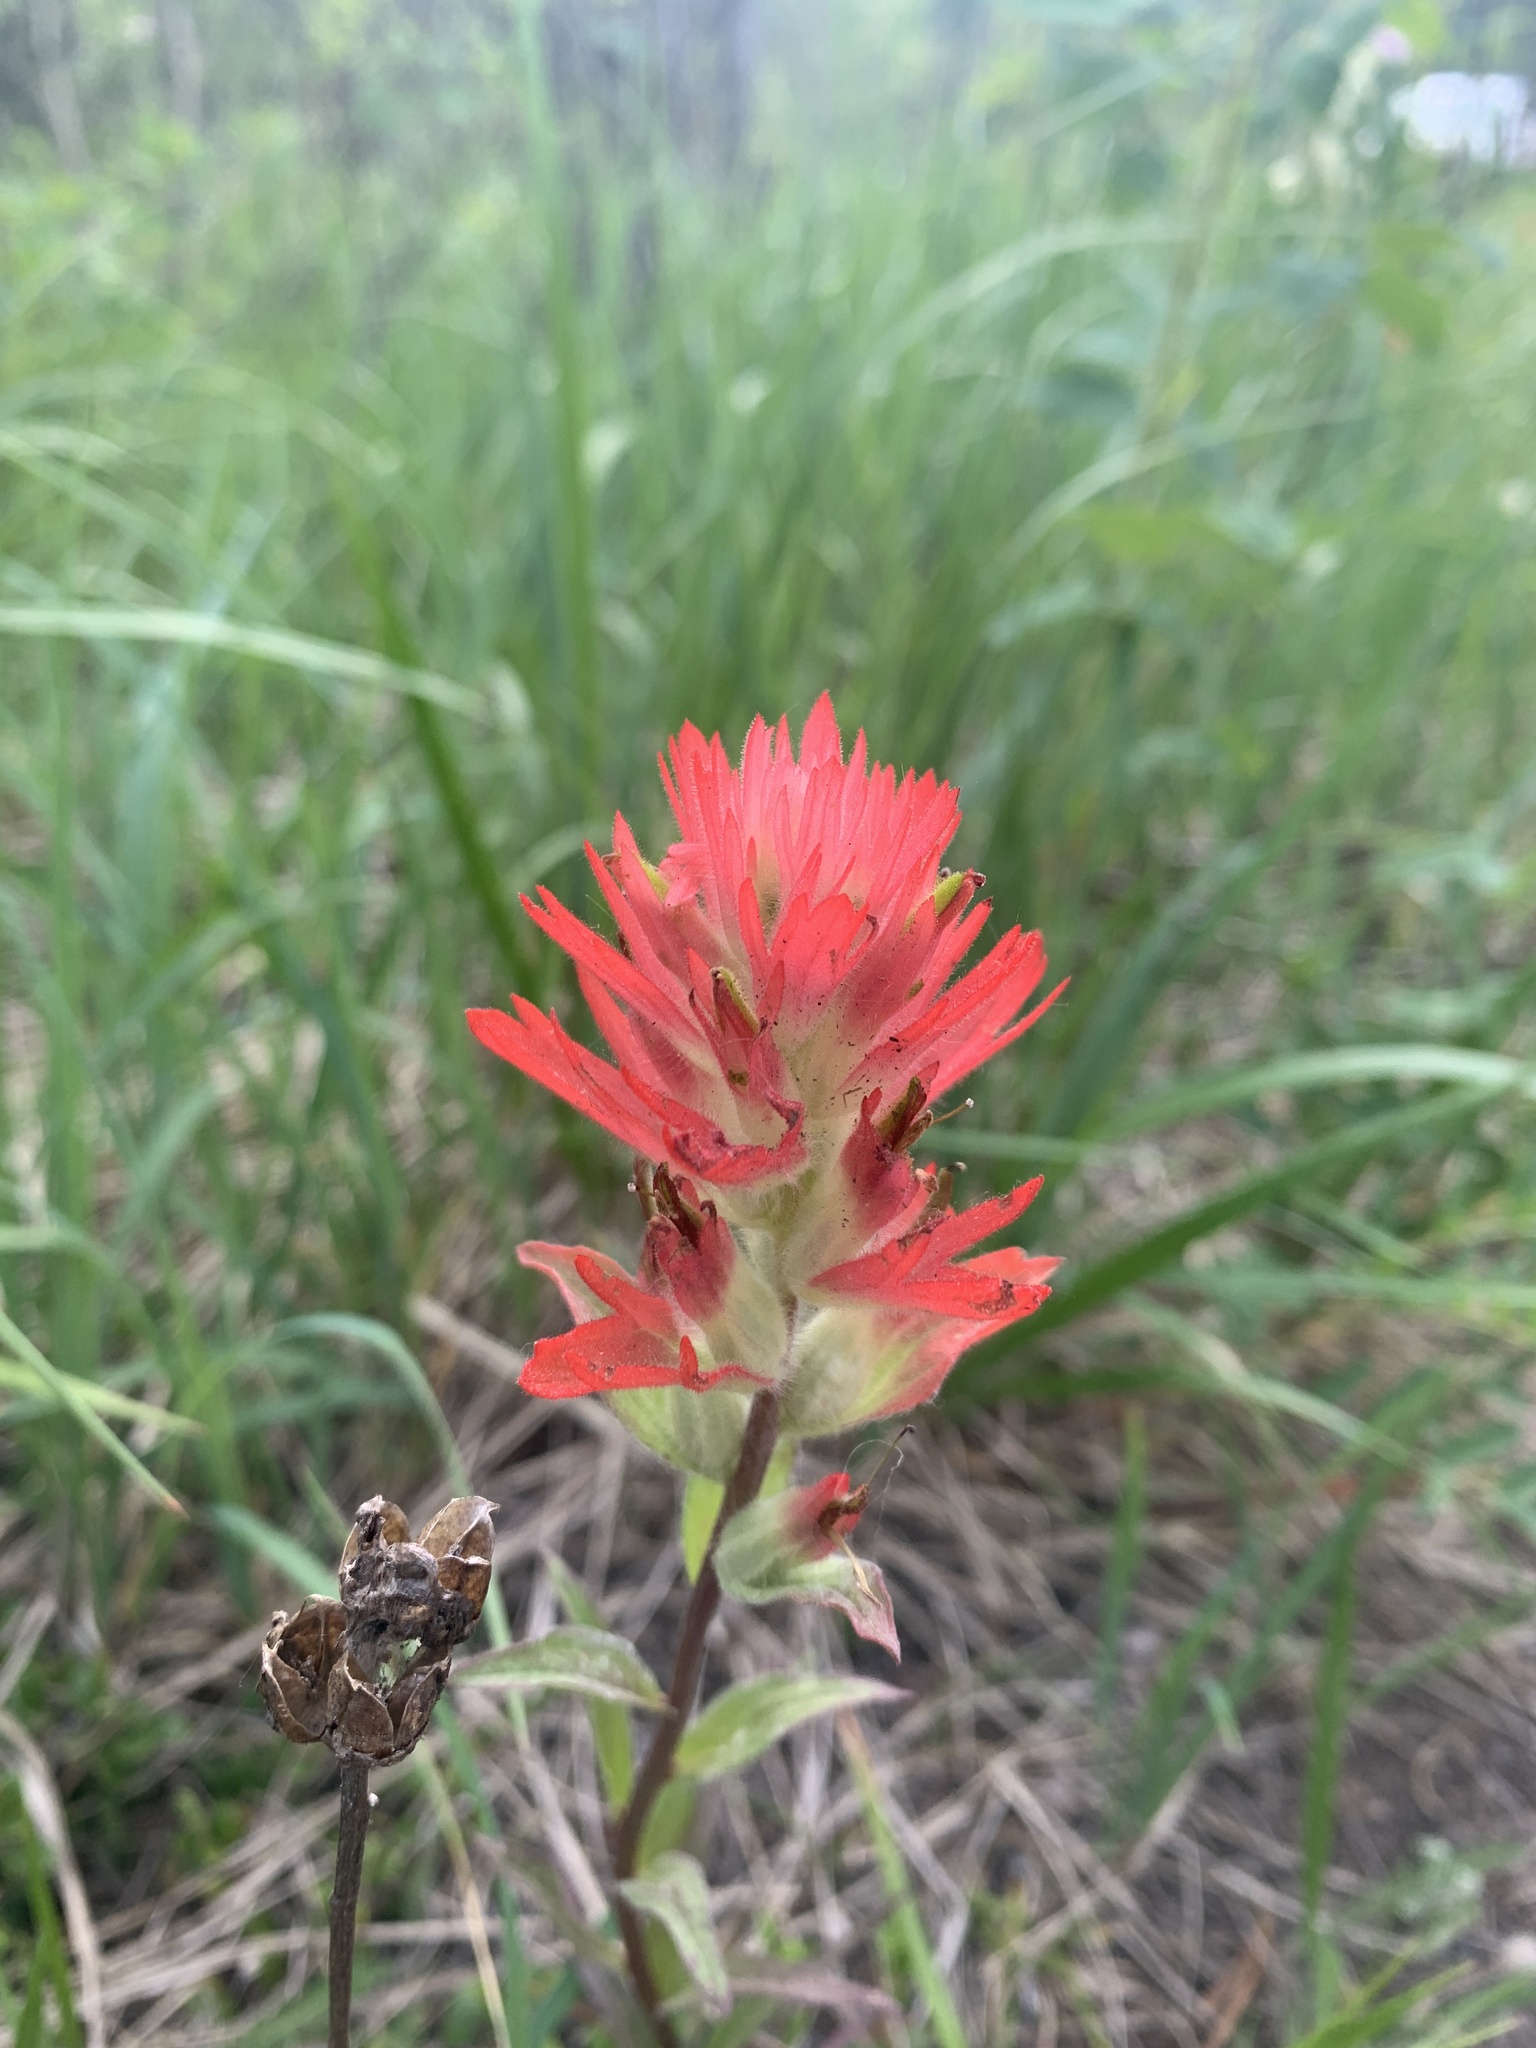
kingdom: Plantae
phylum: Tracheophyta
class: Magnoliopsida
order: Lamiales
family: Orobanchaceae
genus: Castilleja
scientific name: Castilleja miniata
